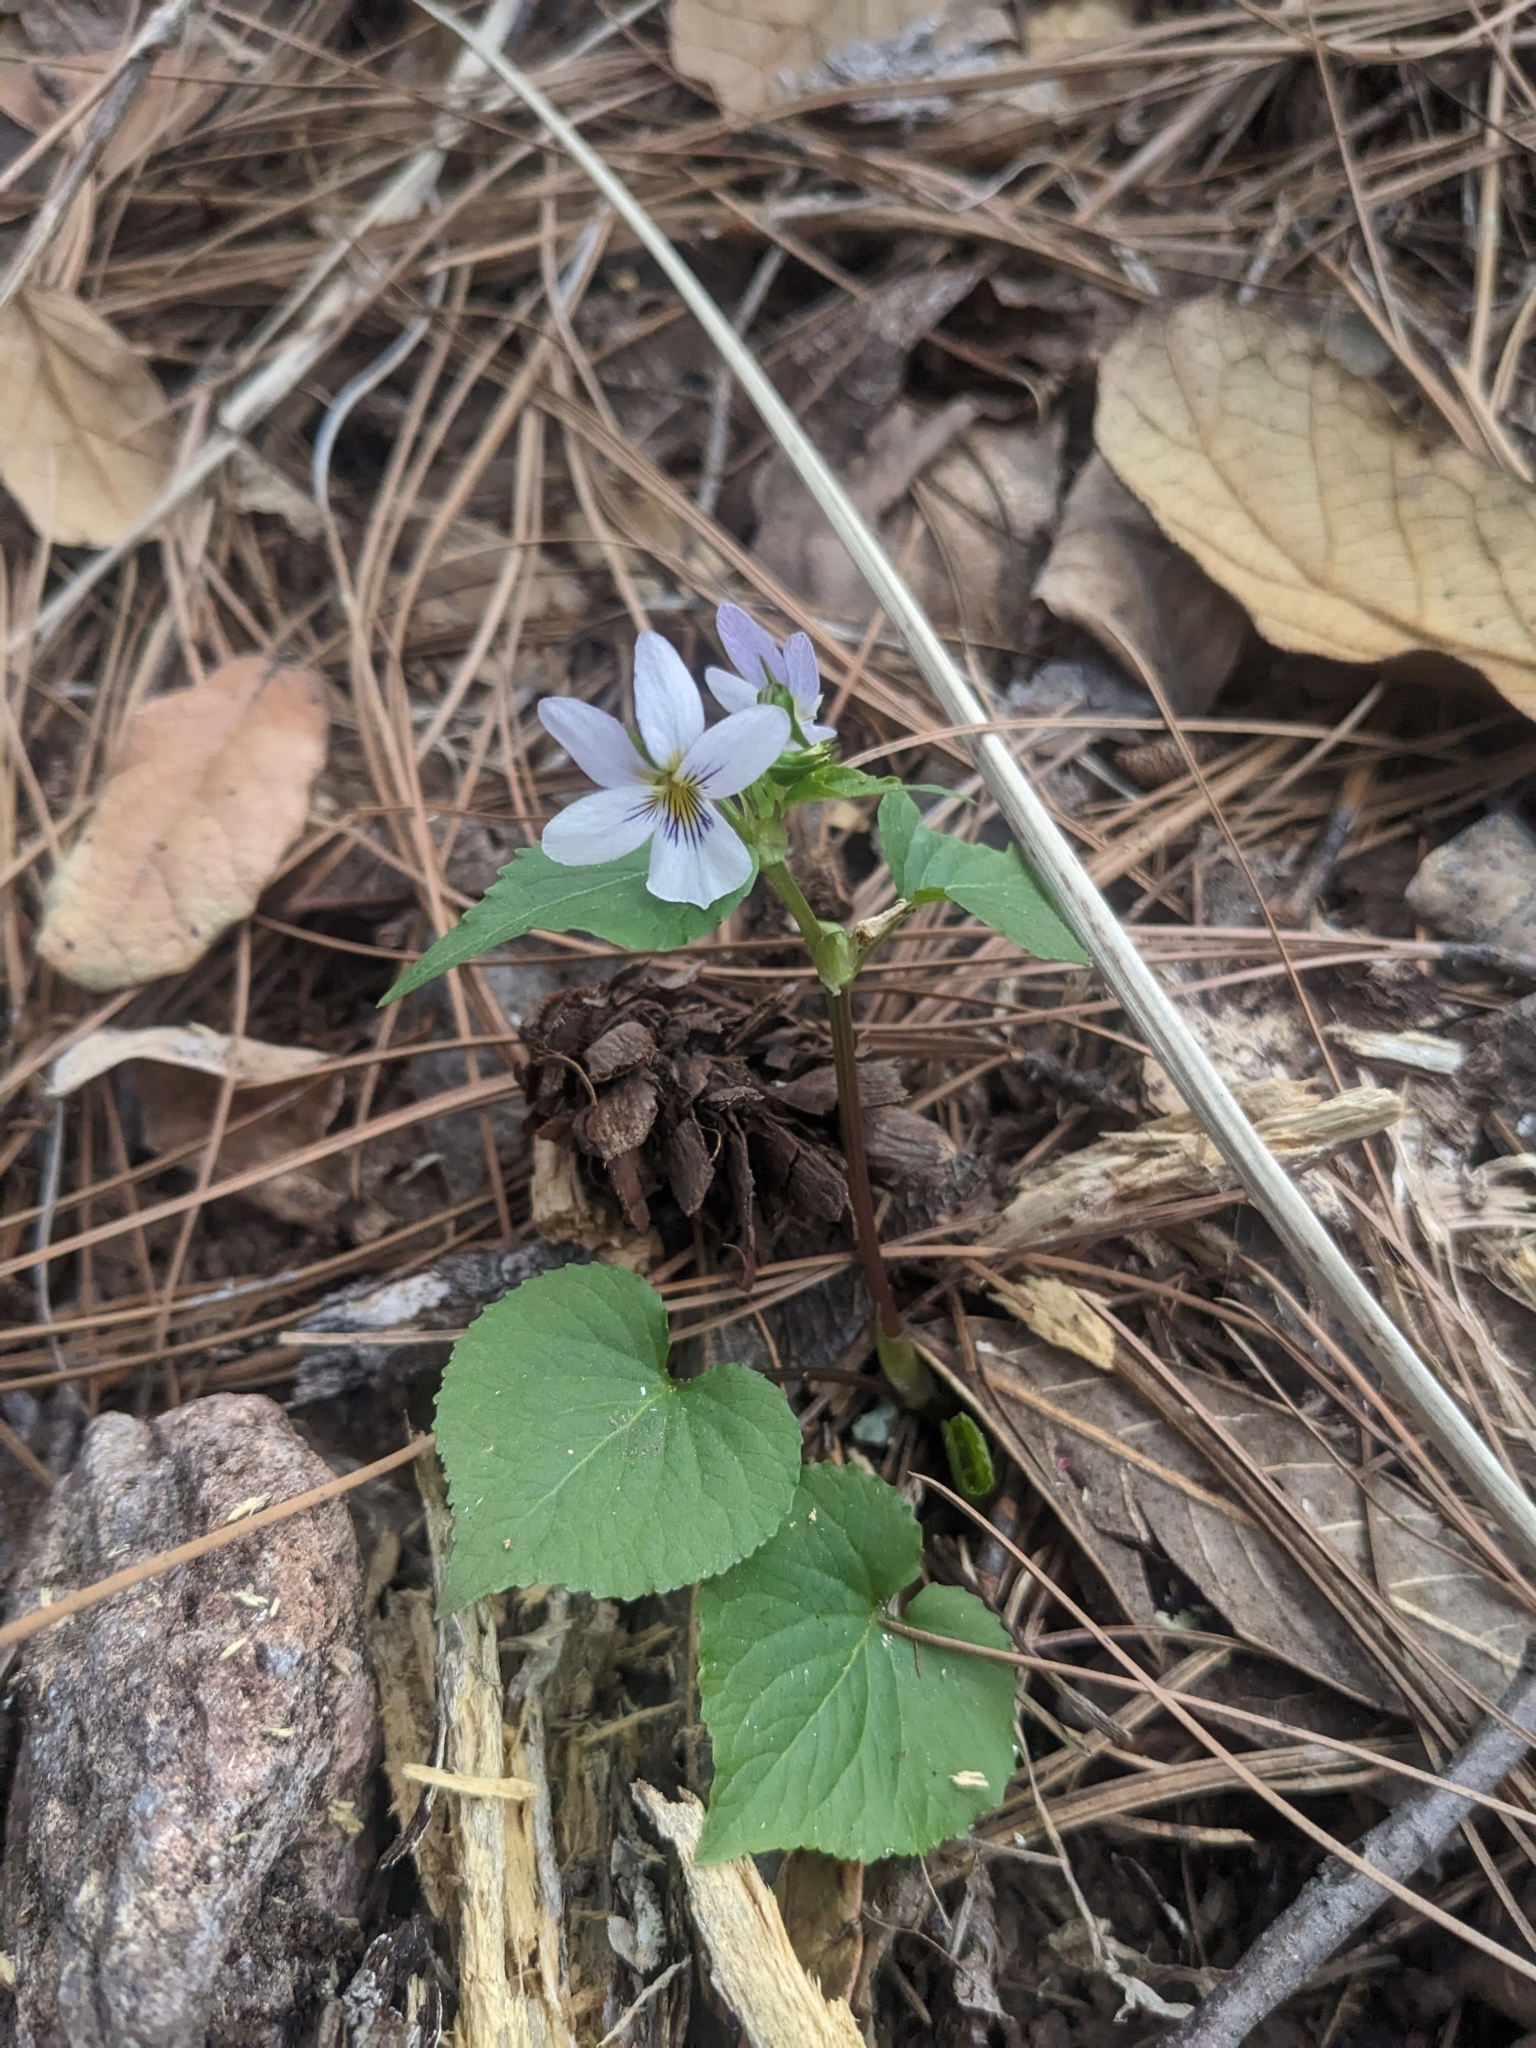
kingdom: Plantae
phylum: Tracheophyta
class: Magnoliopsida
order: Malpighiales
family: Violaceae
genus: Viola
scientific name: Viola canadensis
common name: Canada violet
